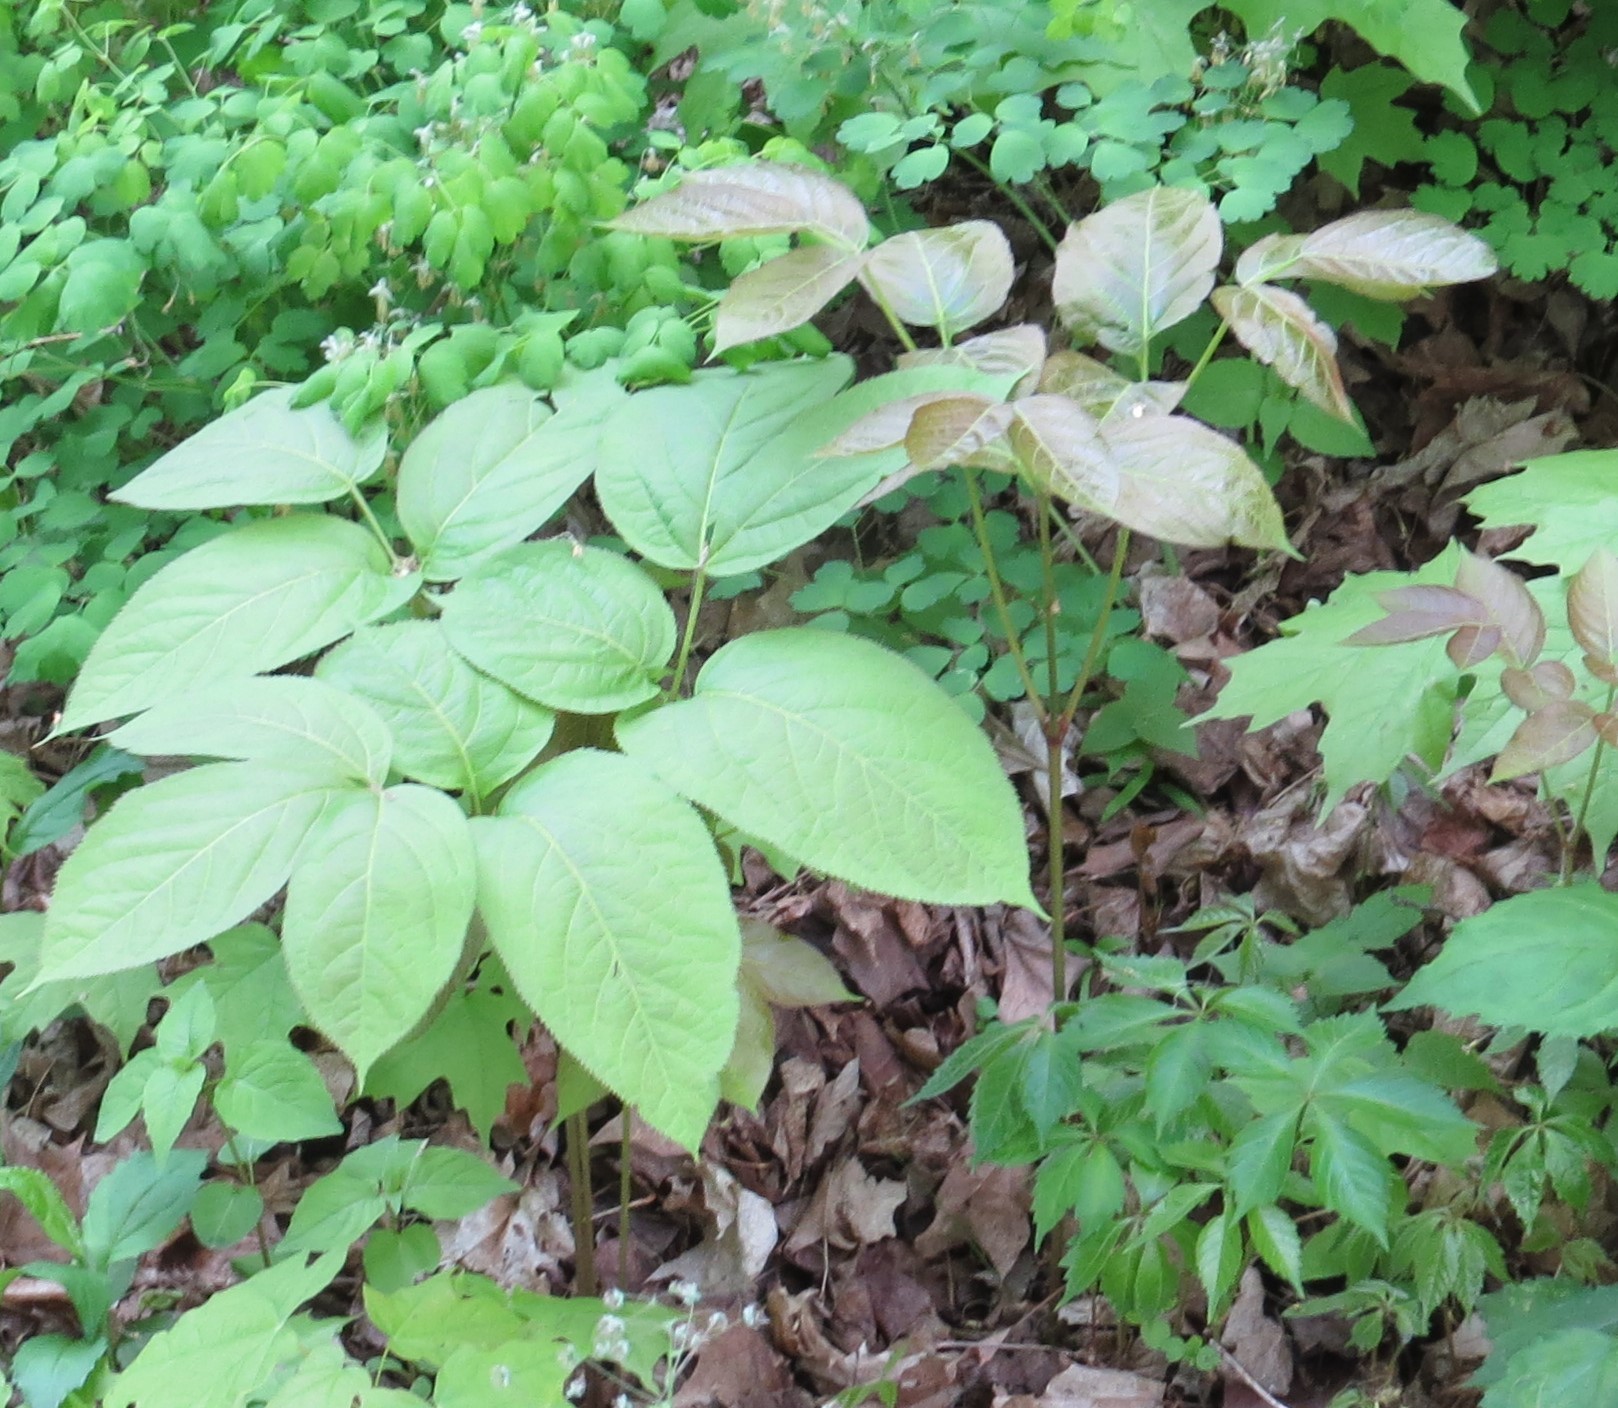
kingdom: Plantae
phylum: Tracheophyta
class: Magnoliopsida
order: Apiales
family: Araliaceae
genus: Aralia
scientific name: Aralia nudicaulis
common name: Wild sarsaparilla
